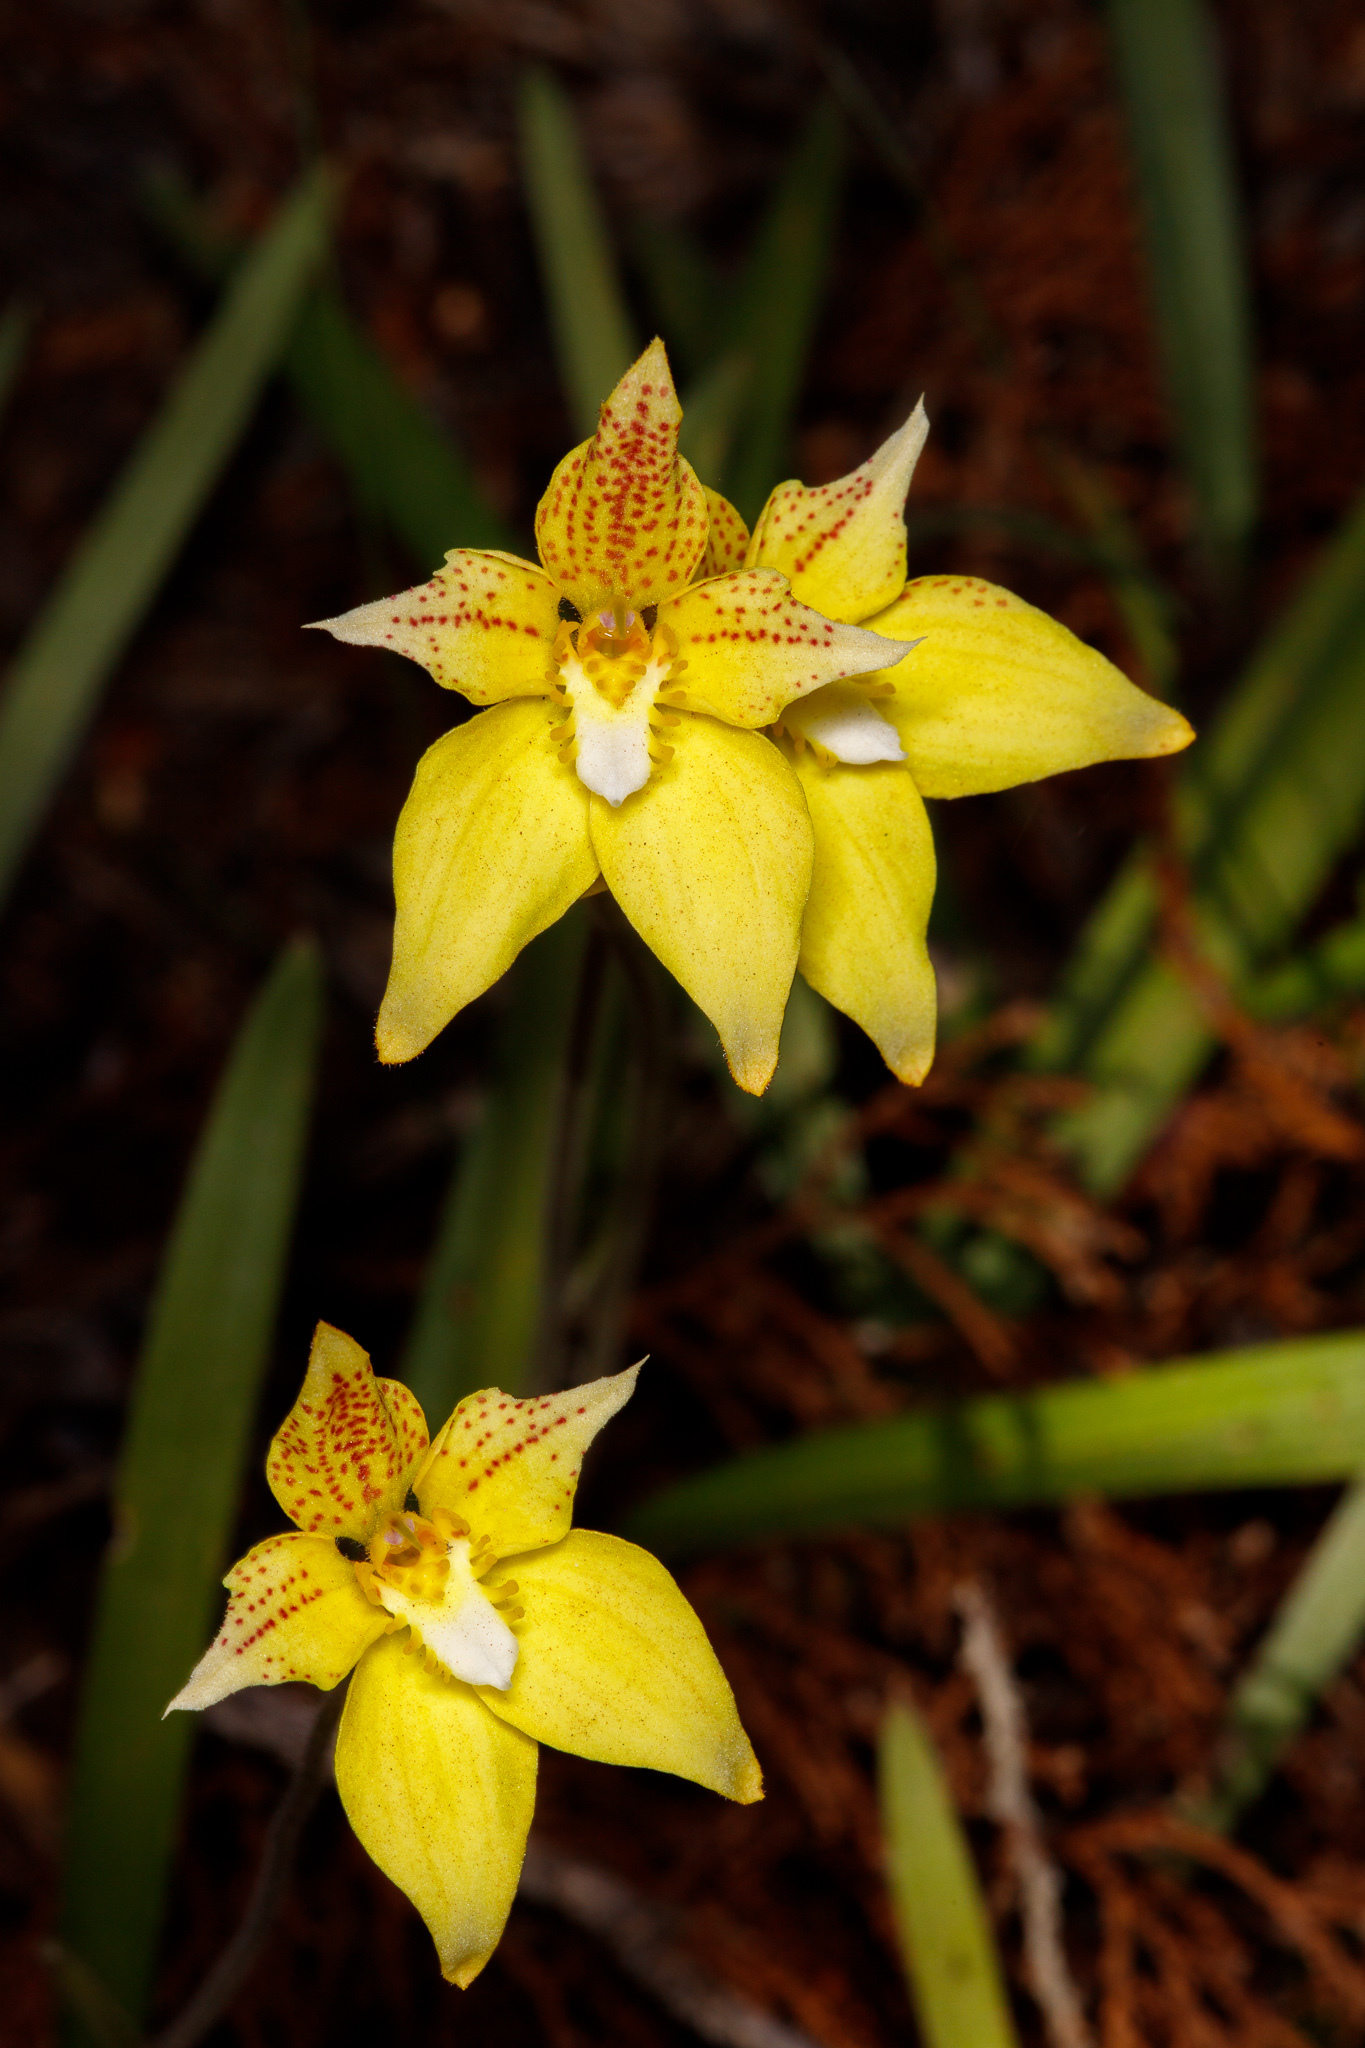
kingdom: Plantae
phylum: Tracheophyta
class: Liliopsida
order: Asparagales
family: Orchidaceae
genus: Caladenia
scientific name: Caladenia flava
